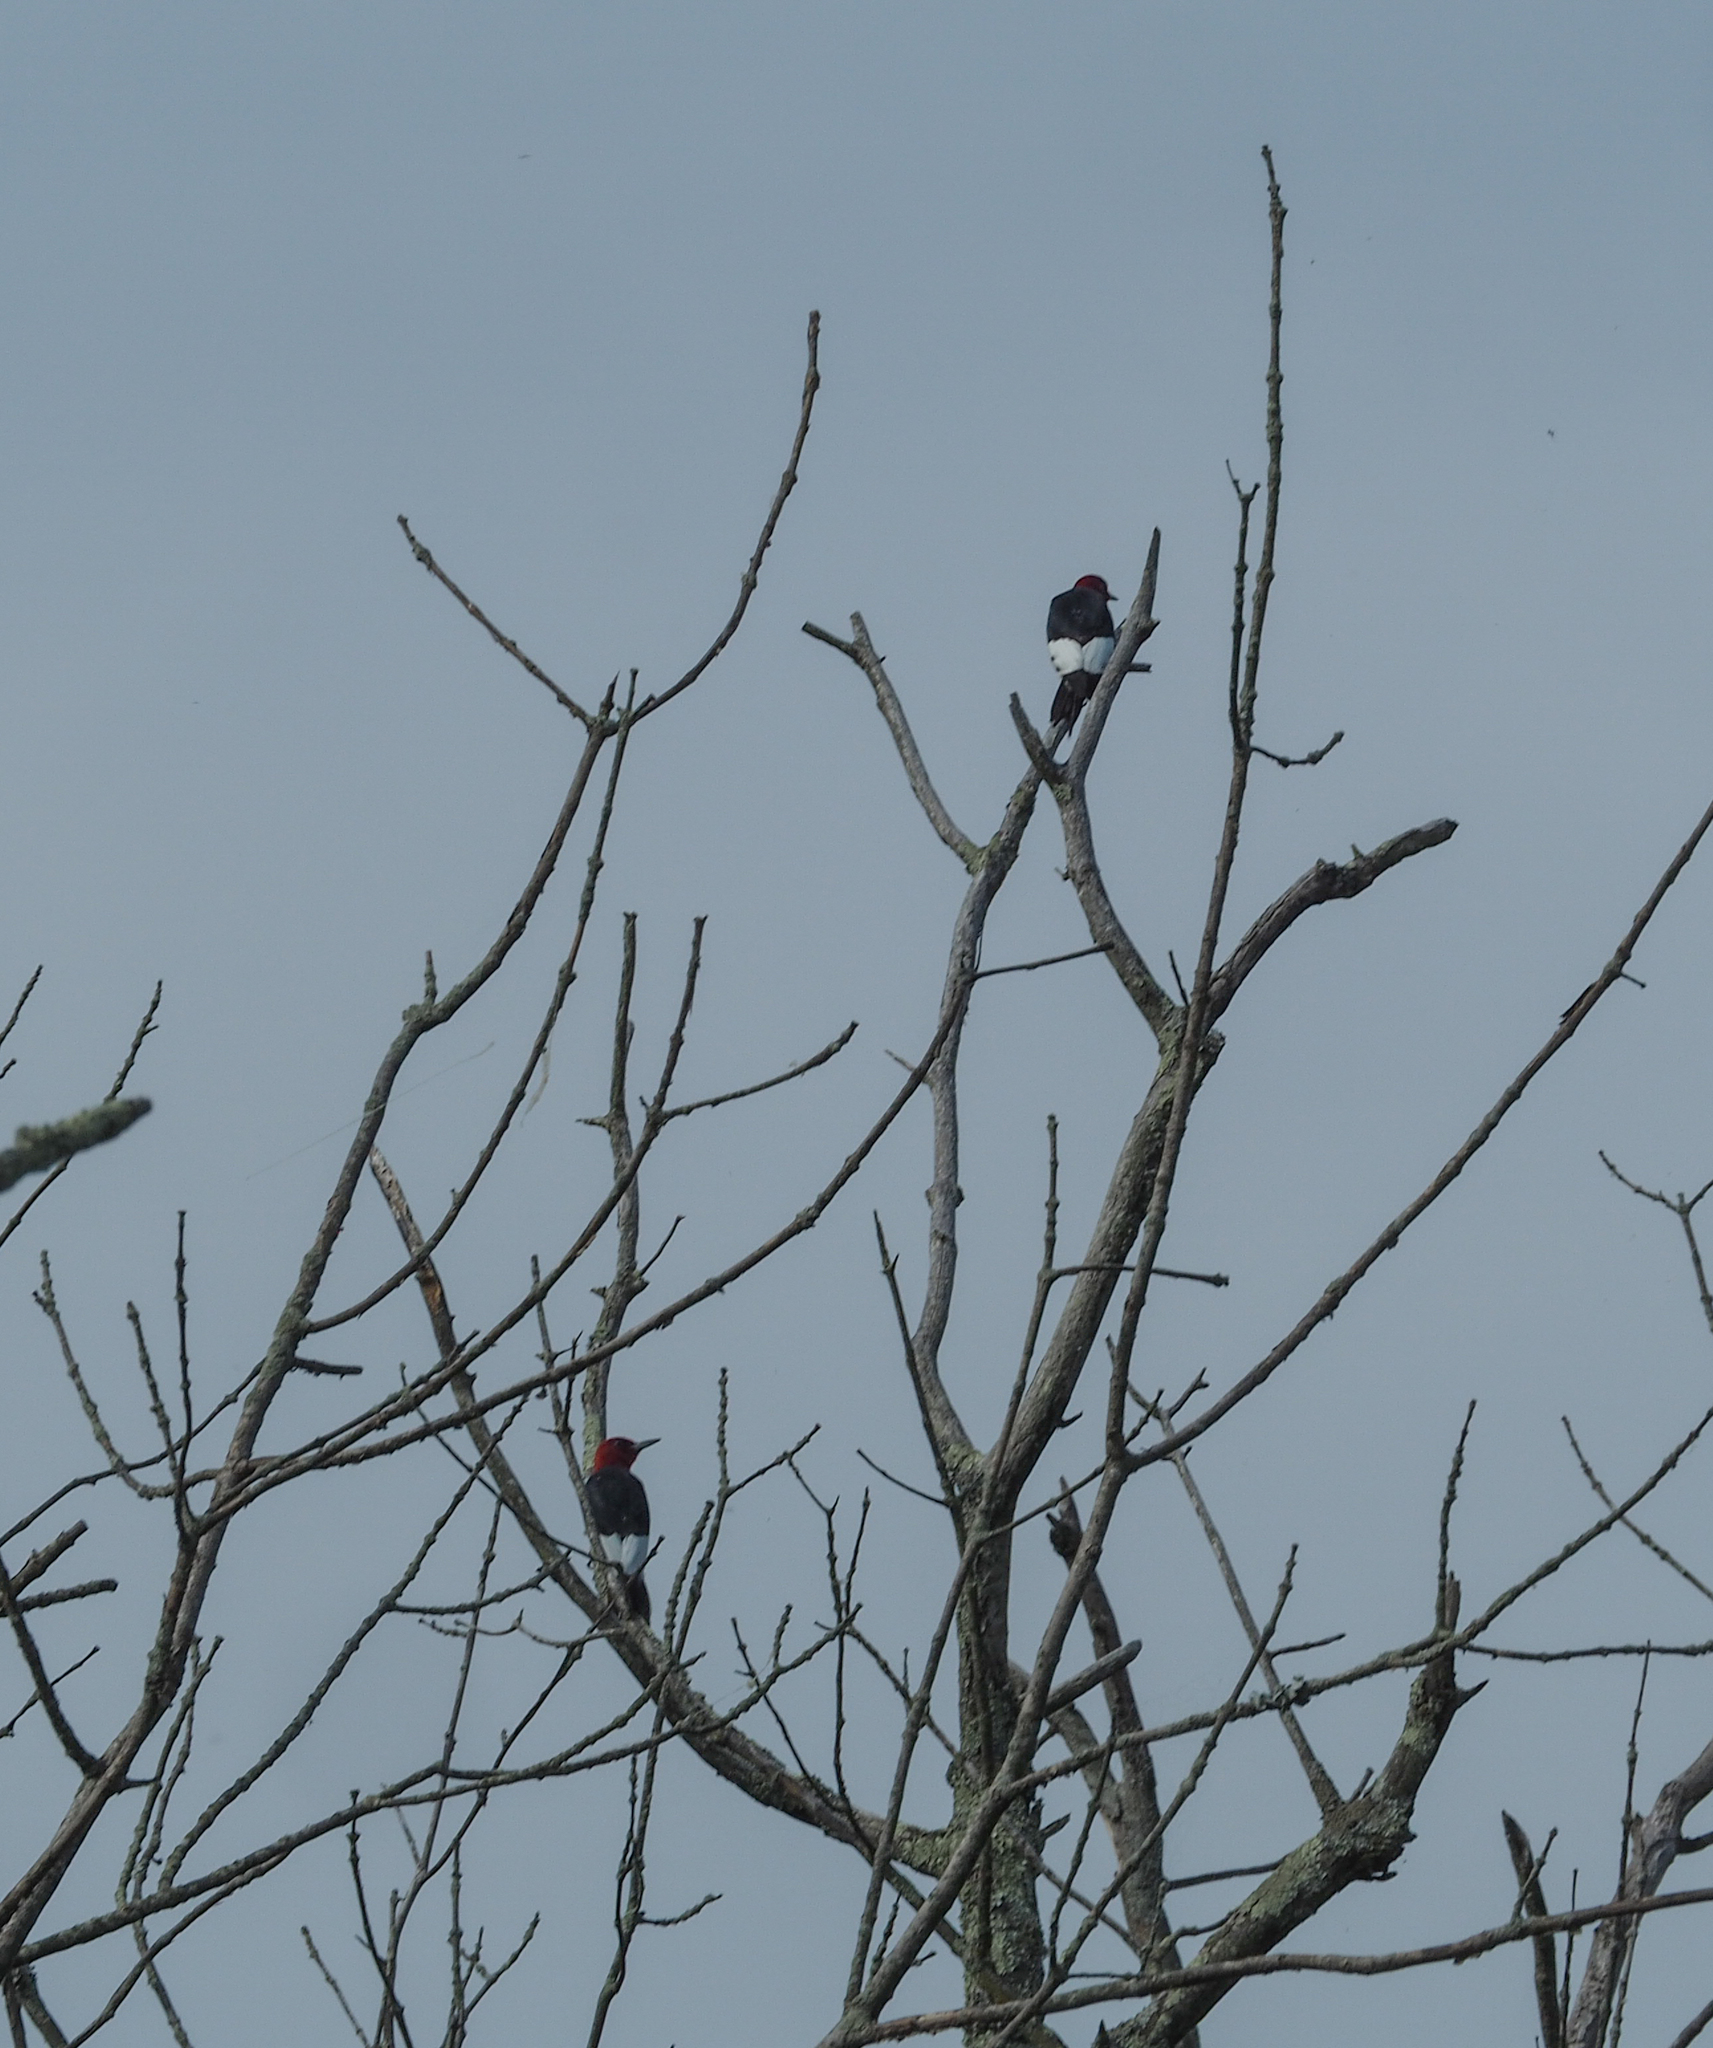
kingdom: Animalia
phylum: Chordata
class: Aves
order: Piciformes
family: Picidae
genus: Melanerpes
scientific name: Melanerpes erythrocephalus
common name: Red-headed woodpecker
